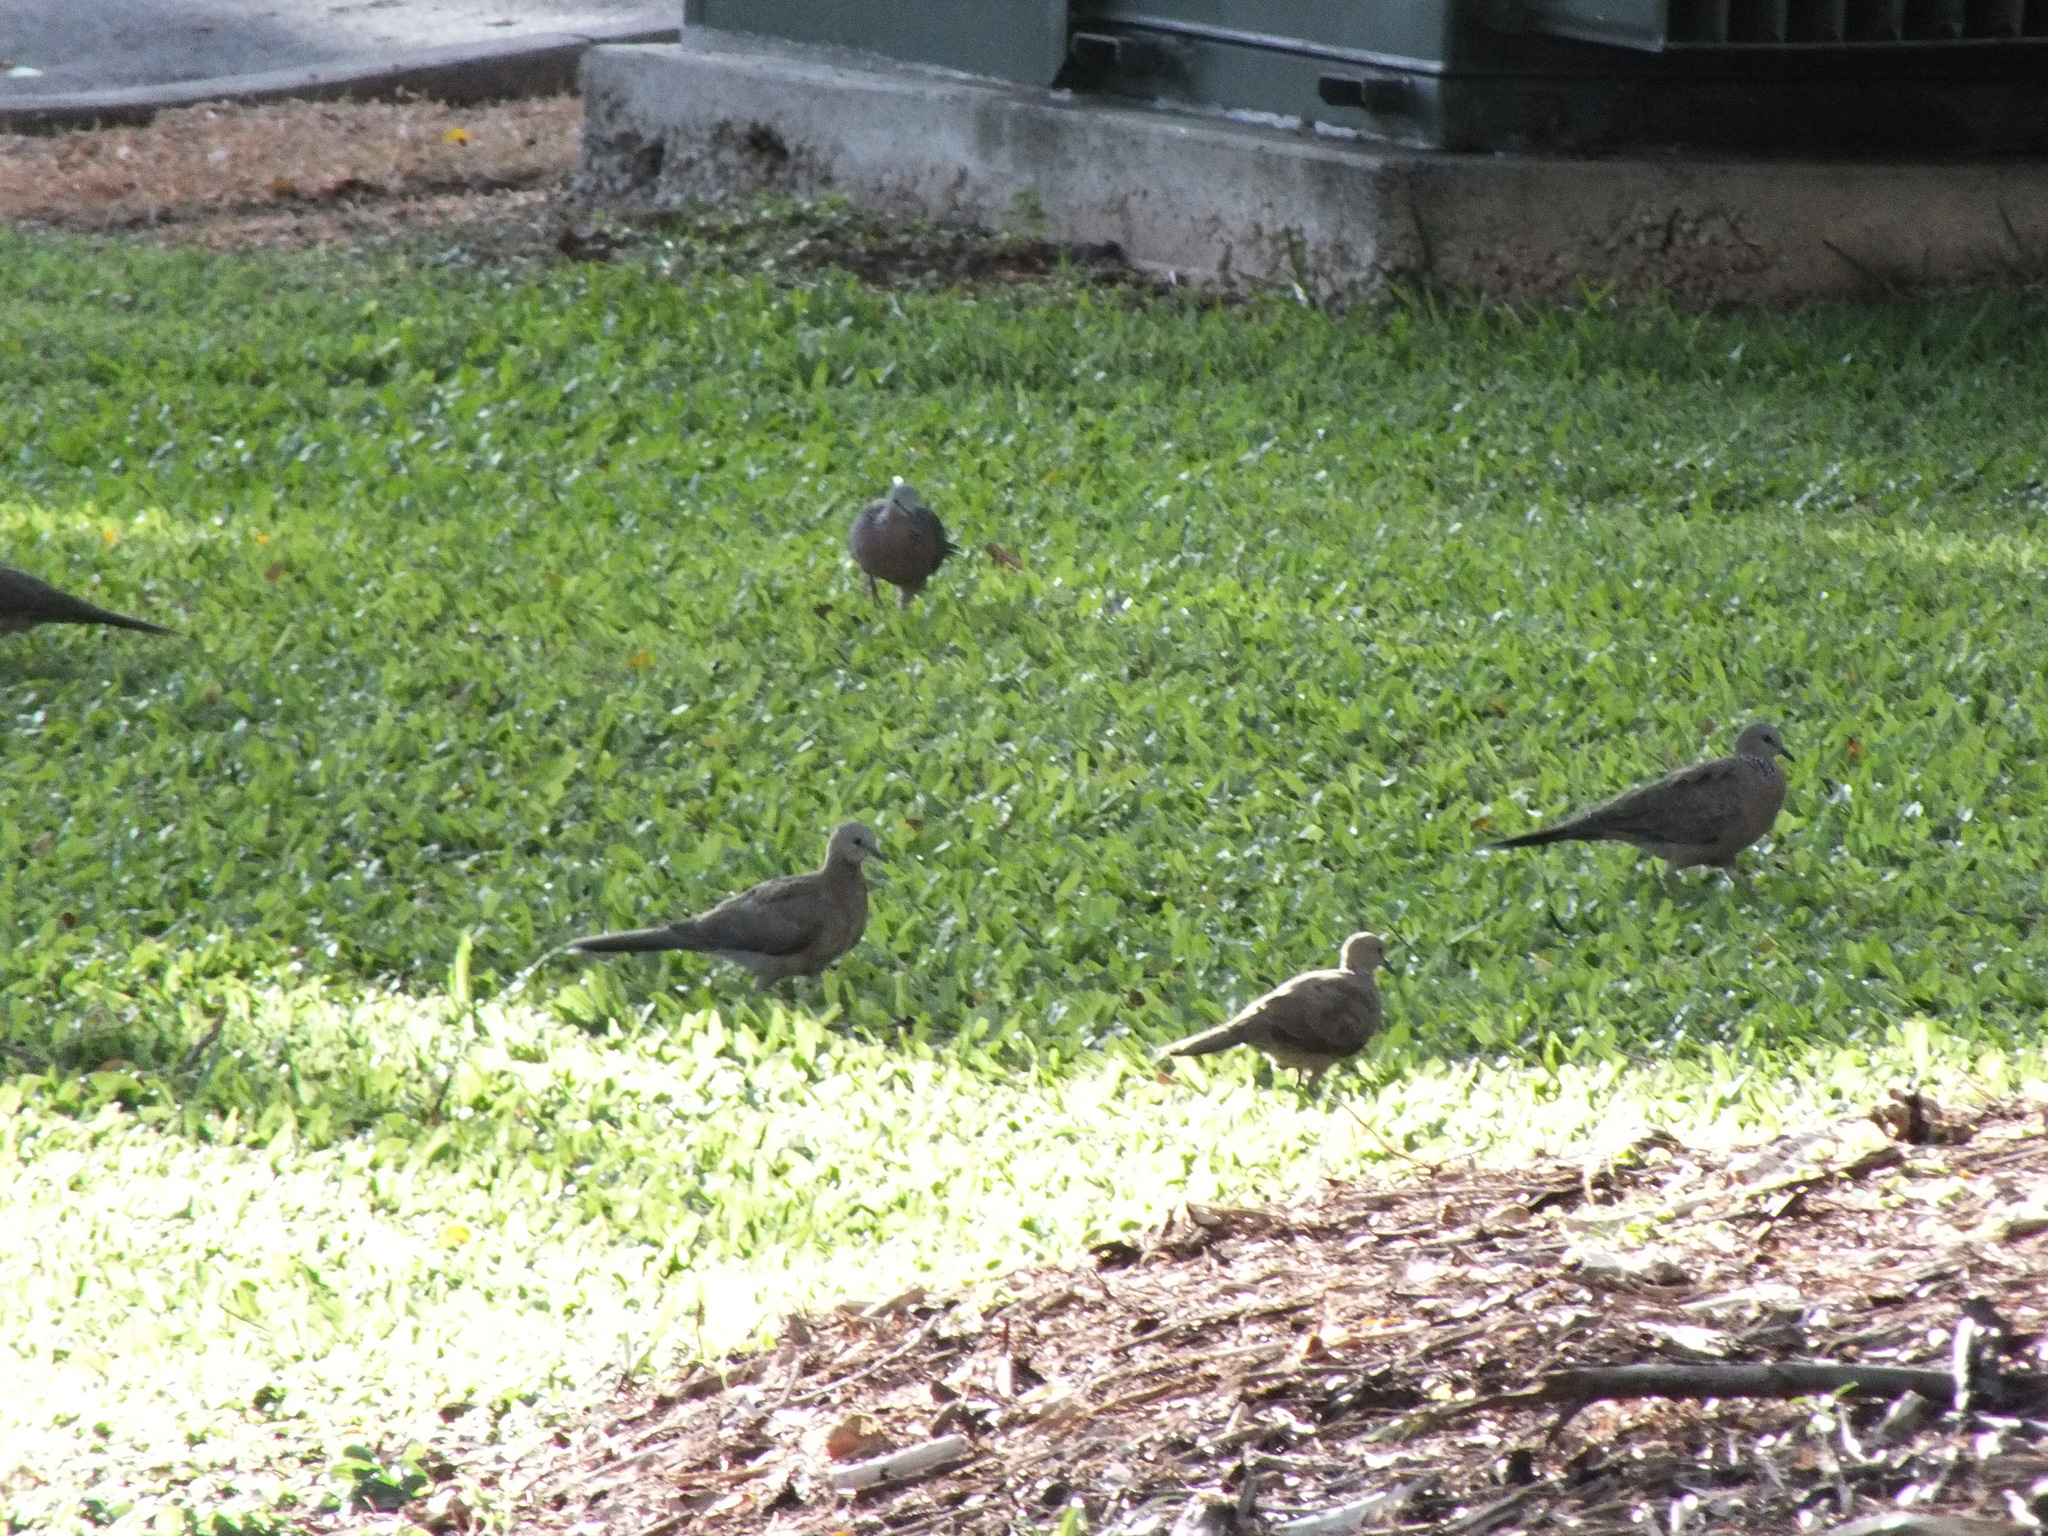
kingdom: Animalia
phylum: Chordata
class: Aves
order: Columbiformes
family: Columbidae
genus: Spilopelia
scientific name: Spilopelia chinensis
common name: Spotted dove
